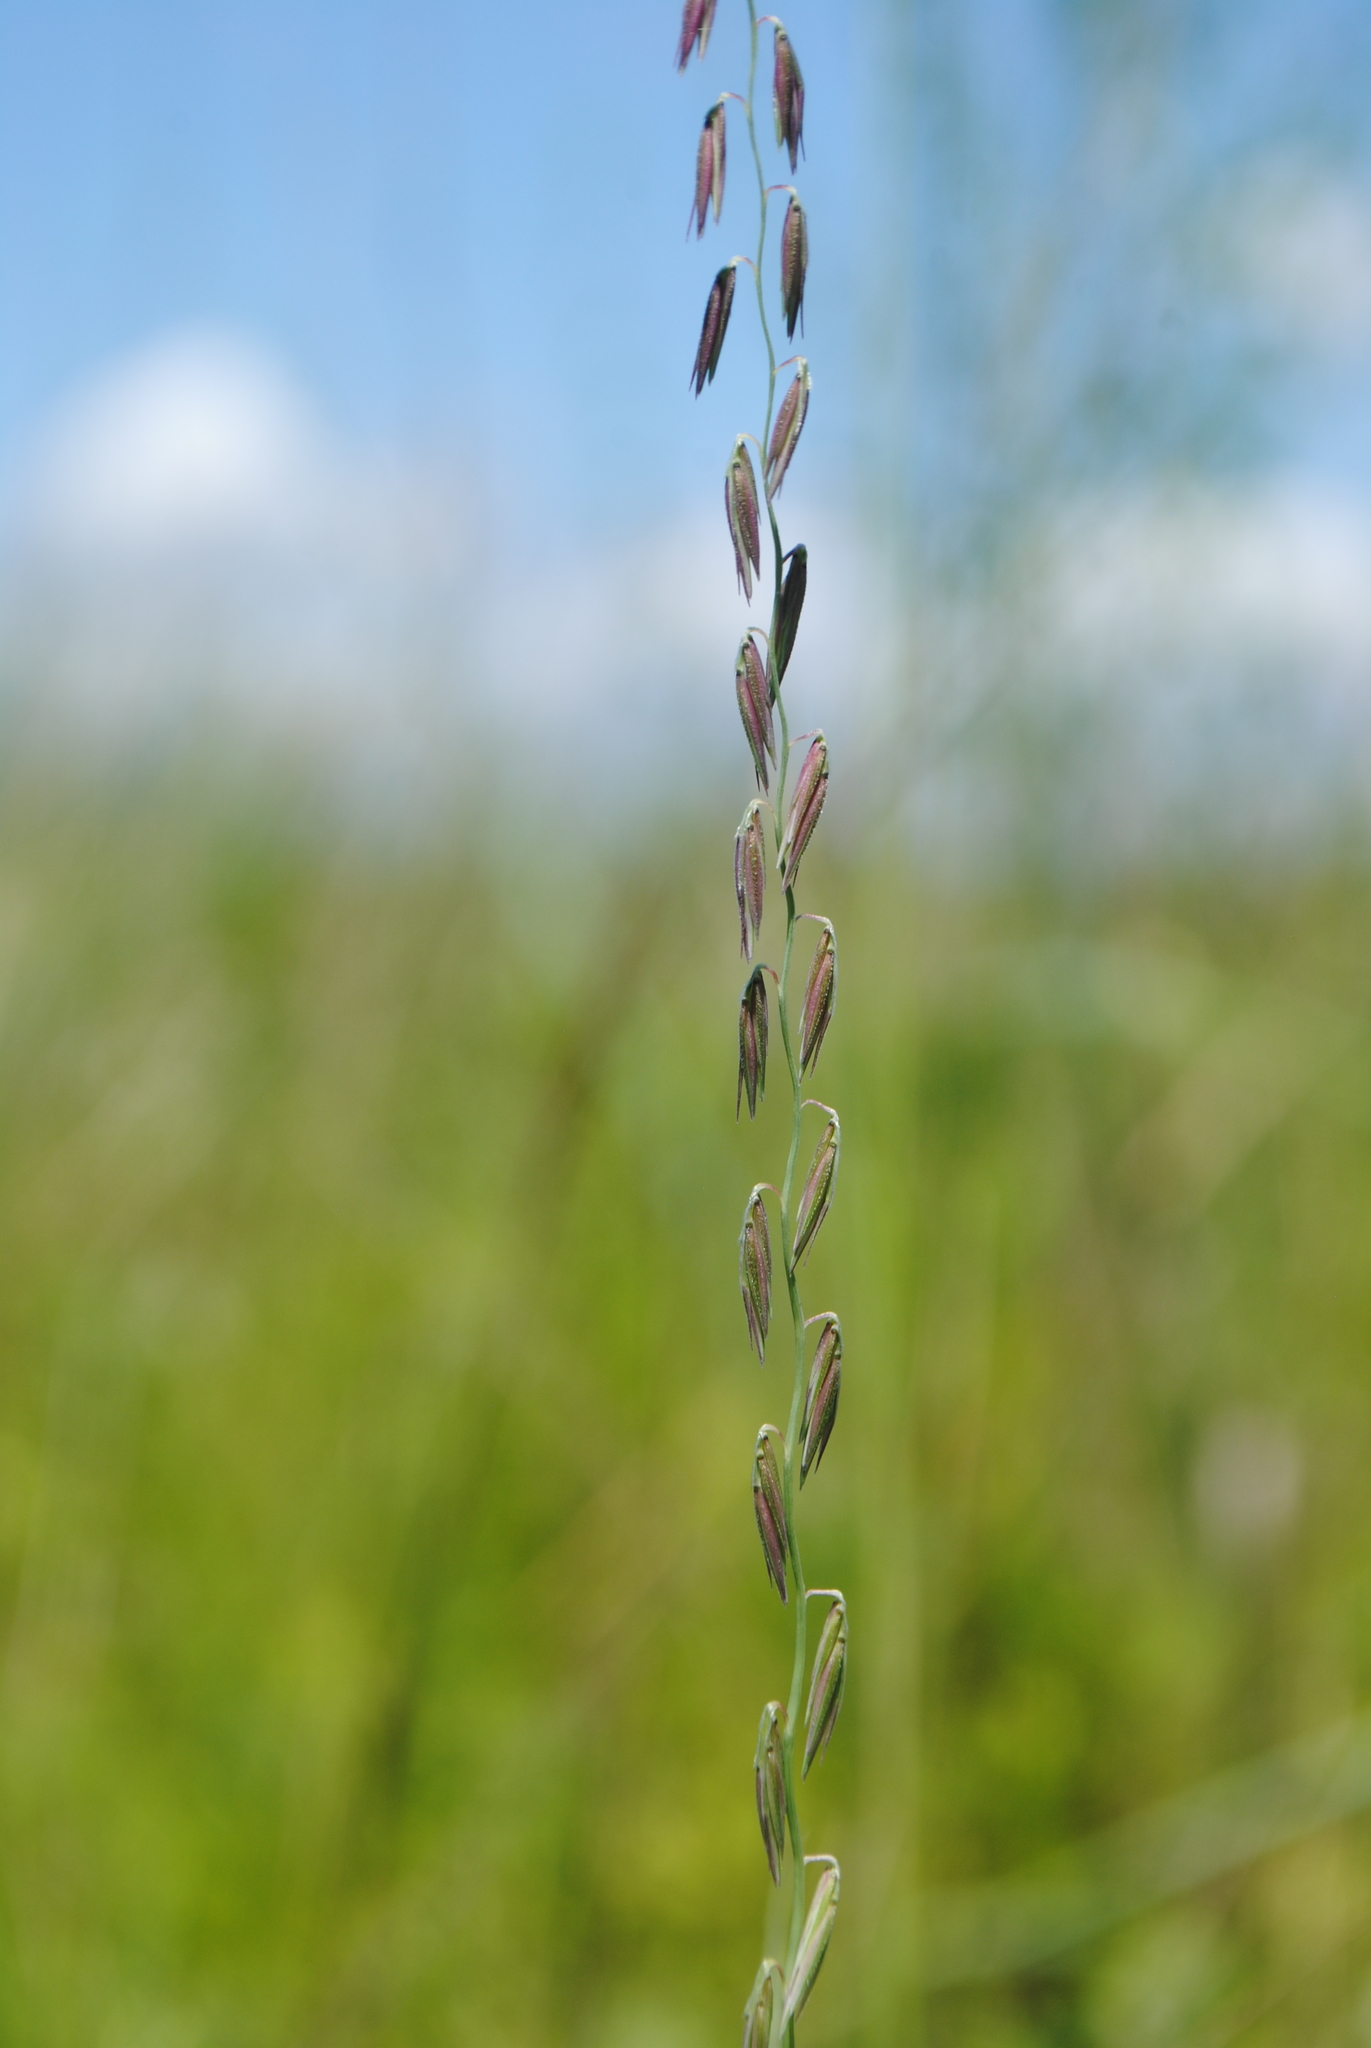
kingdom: Plantae
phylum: Tracheophyta
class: Liliopsida
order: Poales
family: Poaceae
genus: Bouteloua
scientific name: Bouteloua curtipendula
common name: Side-oats grama
